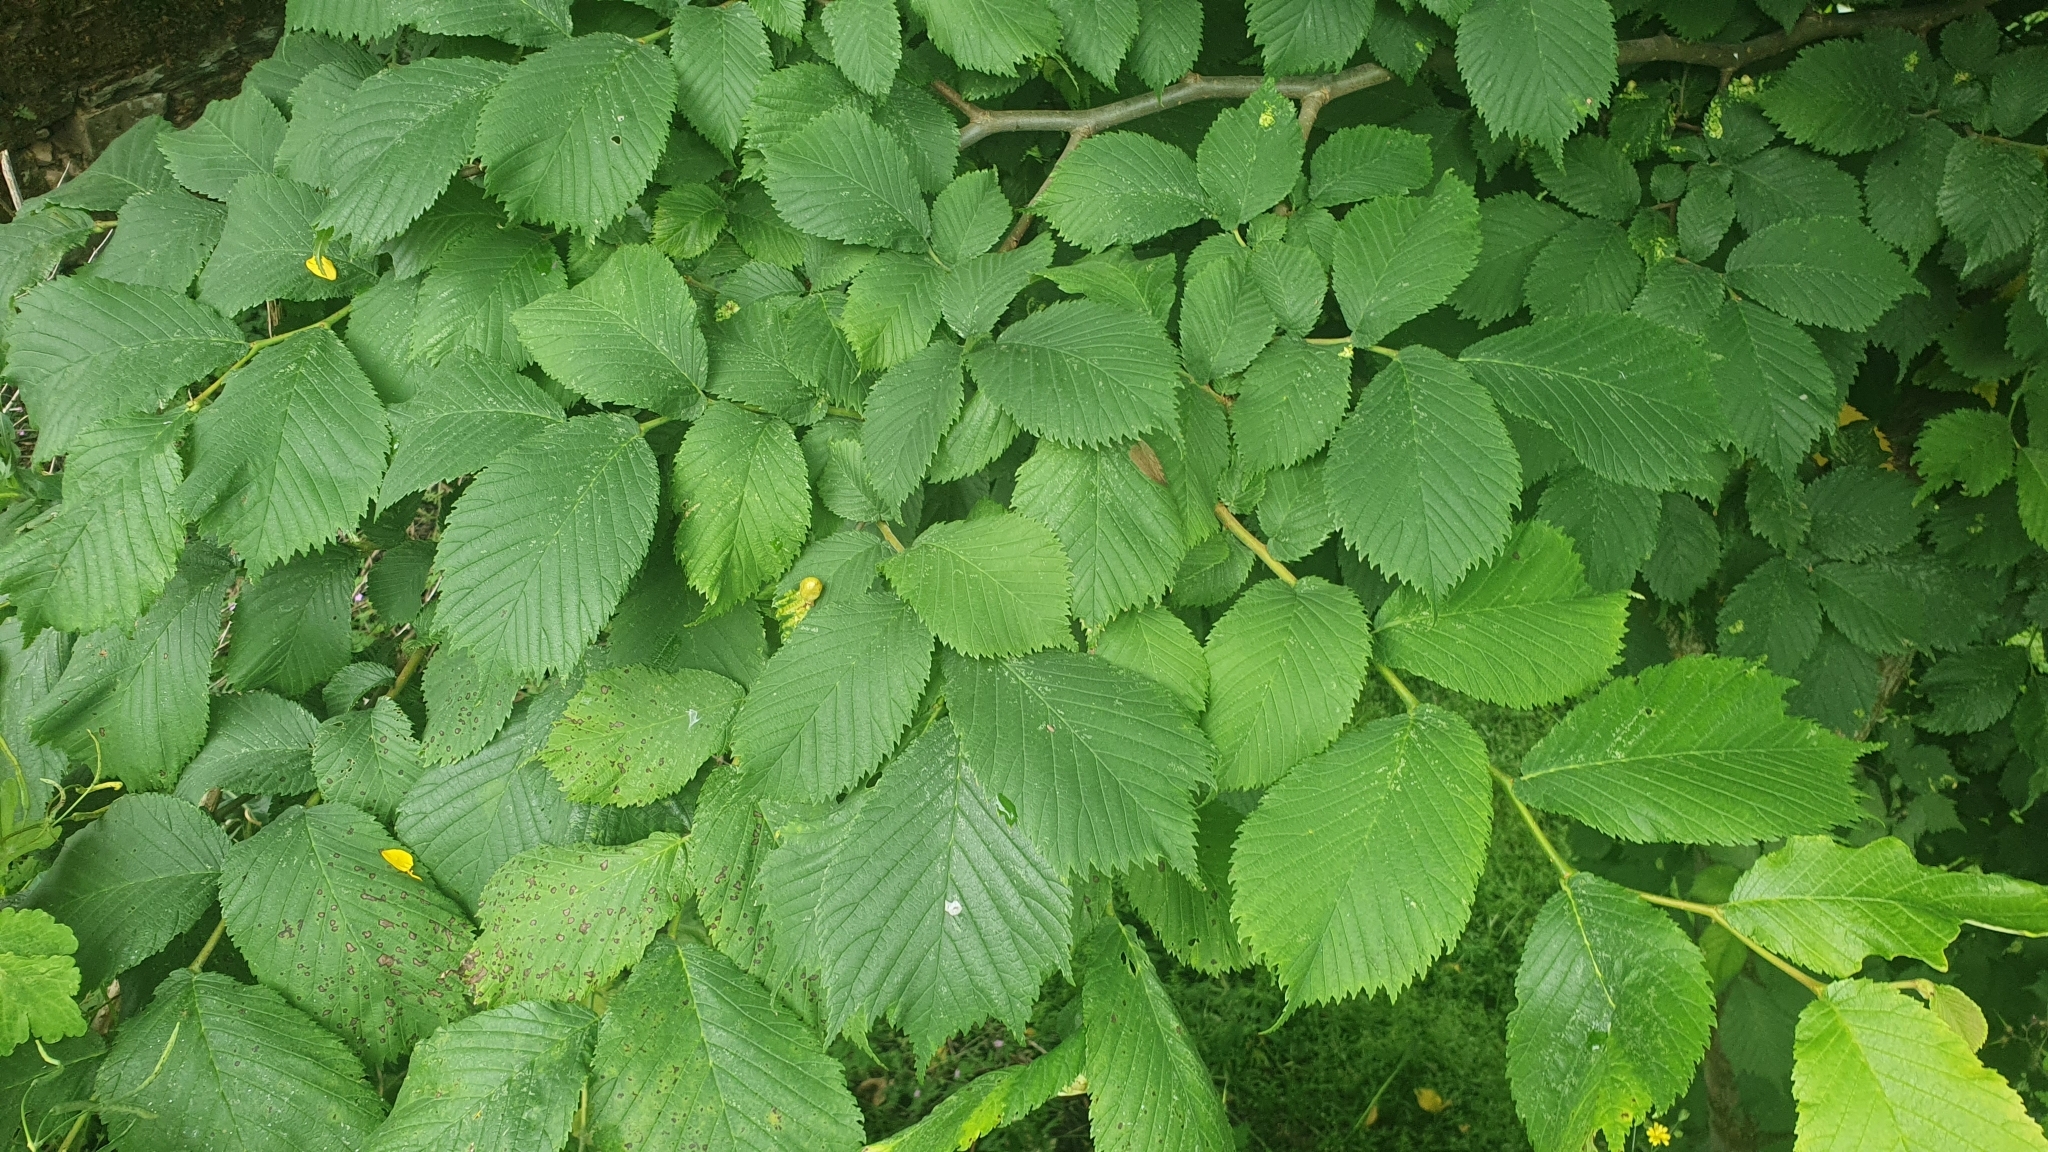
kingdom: Plantae
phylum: Tracheophyta
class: Magnoliopsida
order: Rosales
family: Ulmaceae
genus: Ulmus
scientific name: Ulmus glabra
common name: Wych elm
